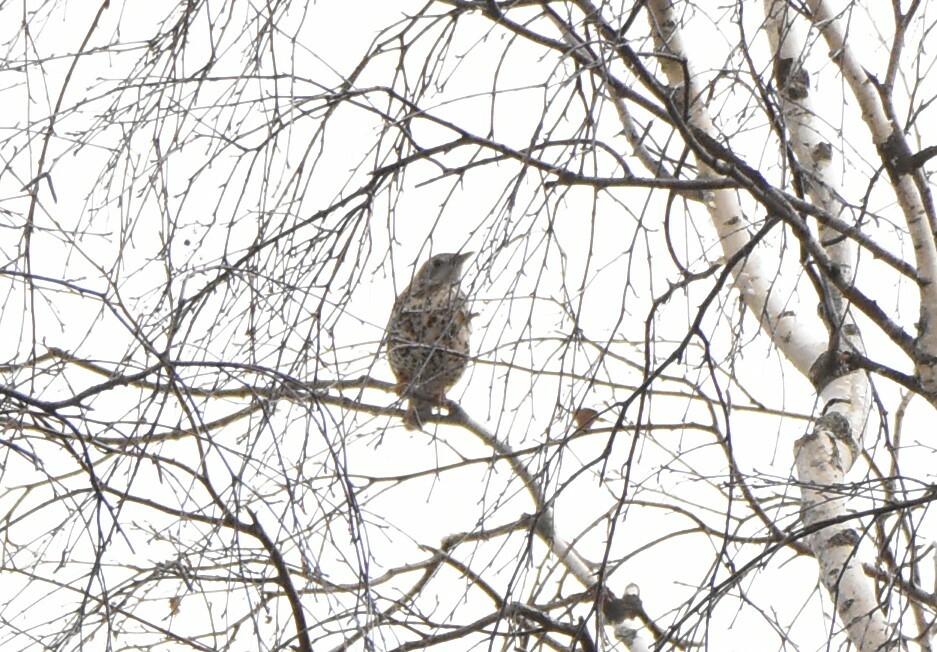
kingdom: Animalia
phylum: Chordata
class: Aves
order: Passeriformes
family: Turdidae
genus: Turdus
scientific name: Turdus viscivorus
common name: Mistle thrush
